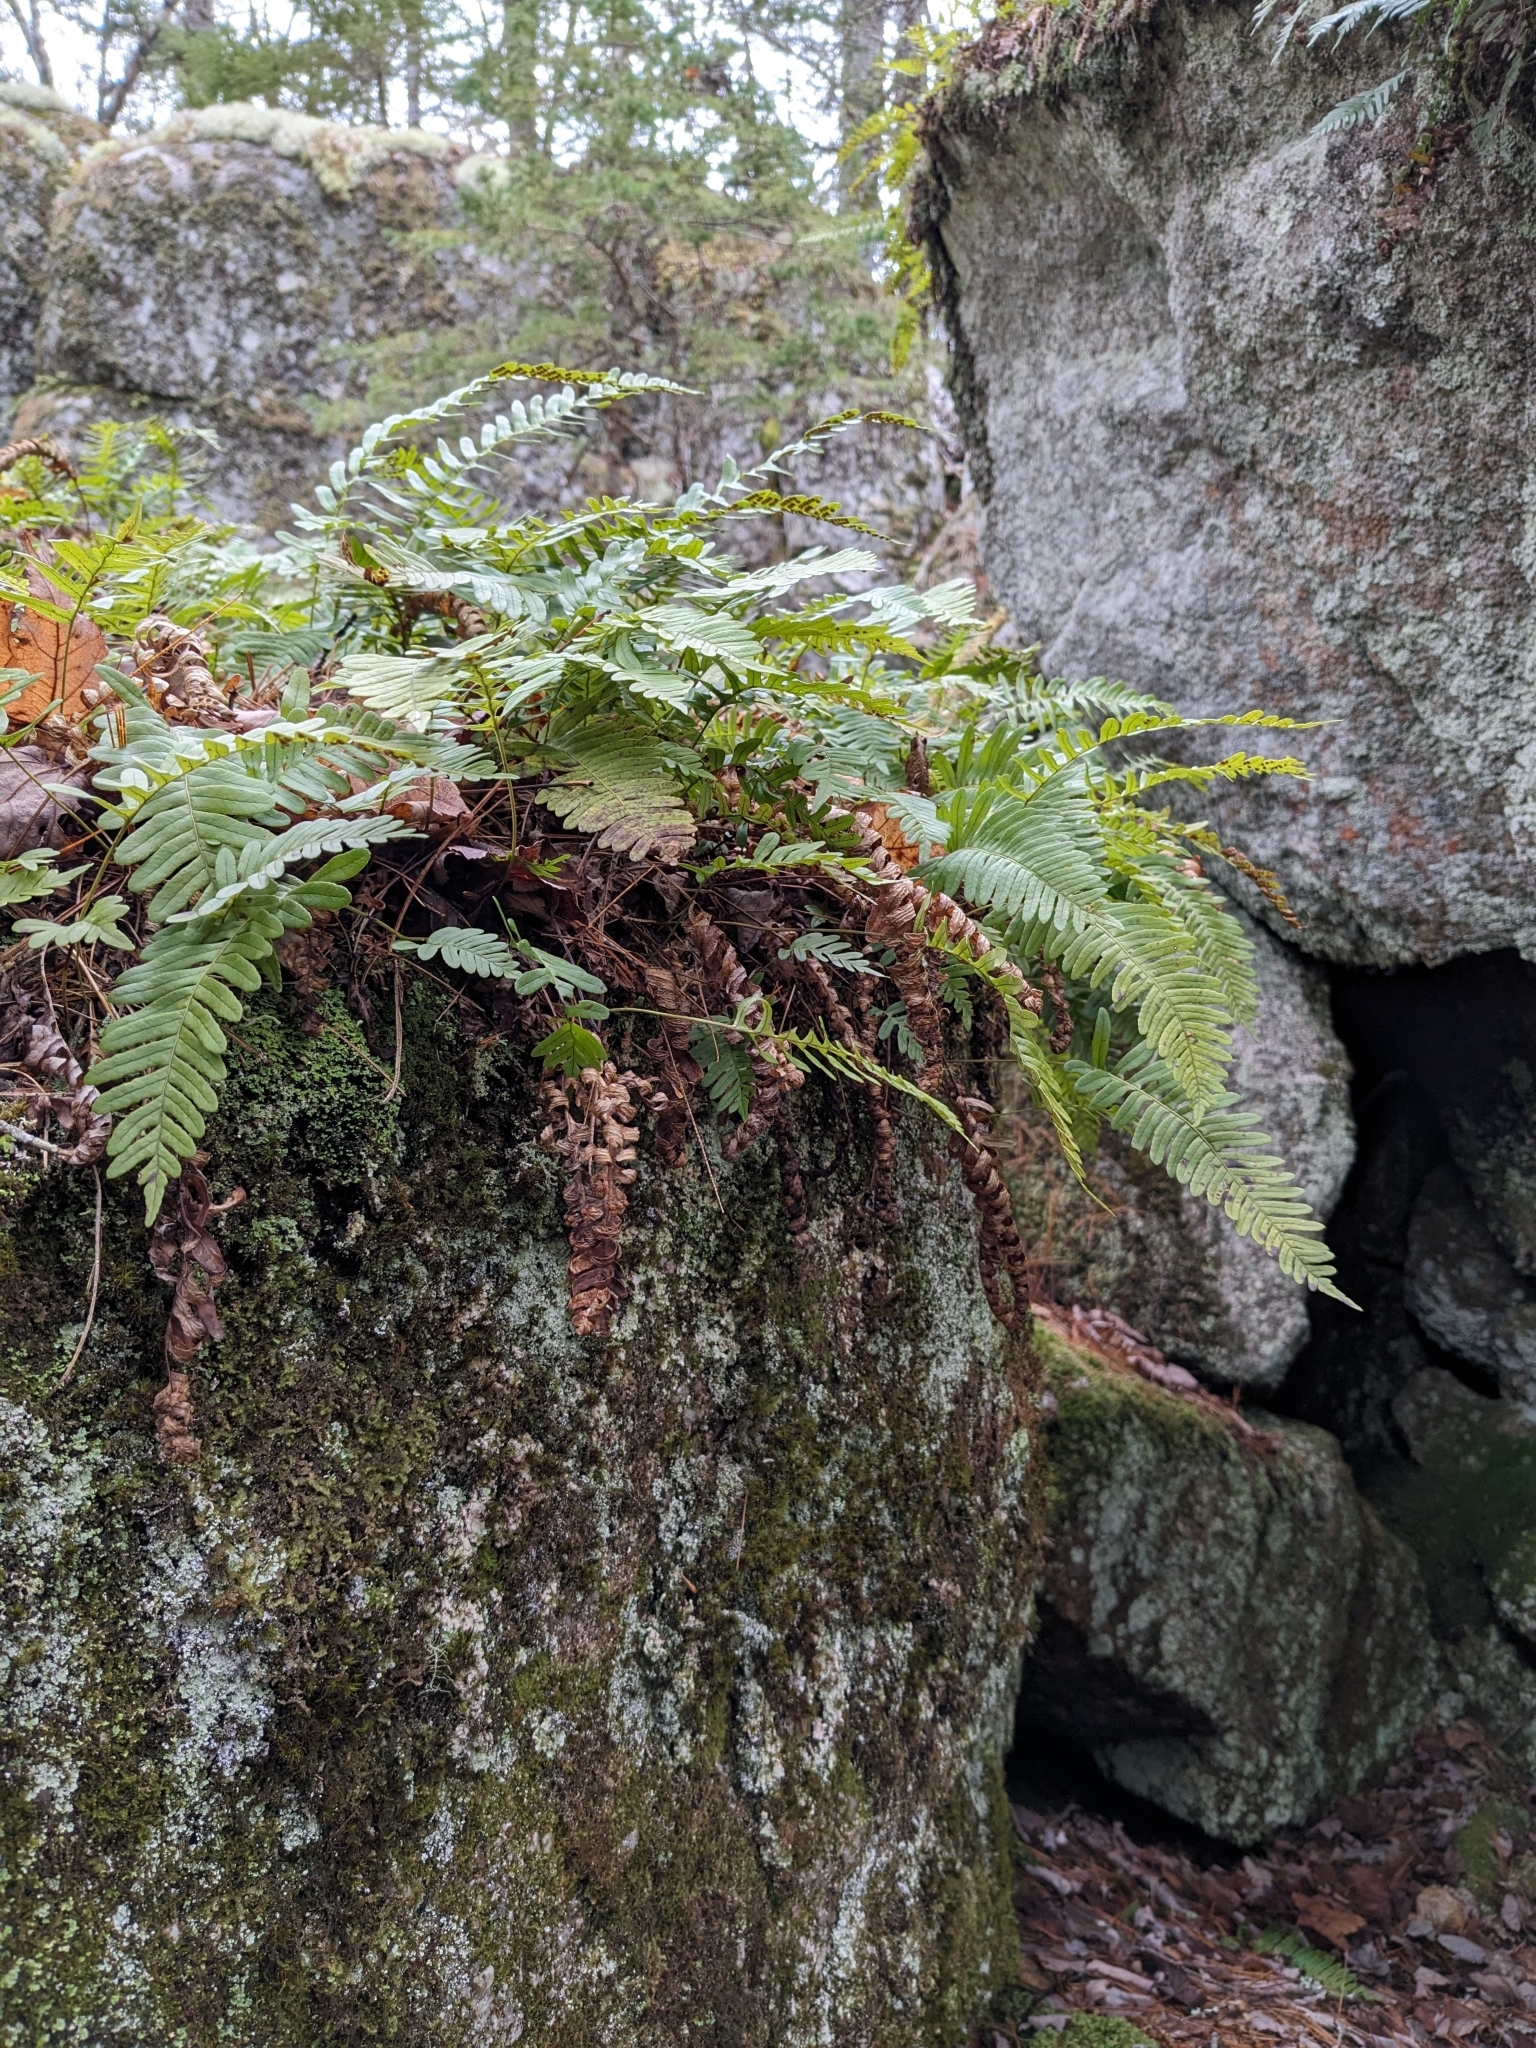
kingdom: Plantae
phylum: Tracheophyta
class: Polypodiopsida
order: Polypodiales
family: Polypodiaceae
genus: Polypodium
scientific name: Polypodium virginianum
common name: American wall fern
